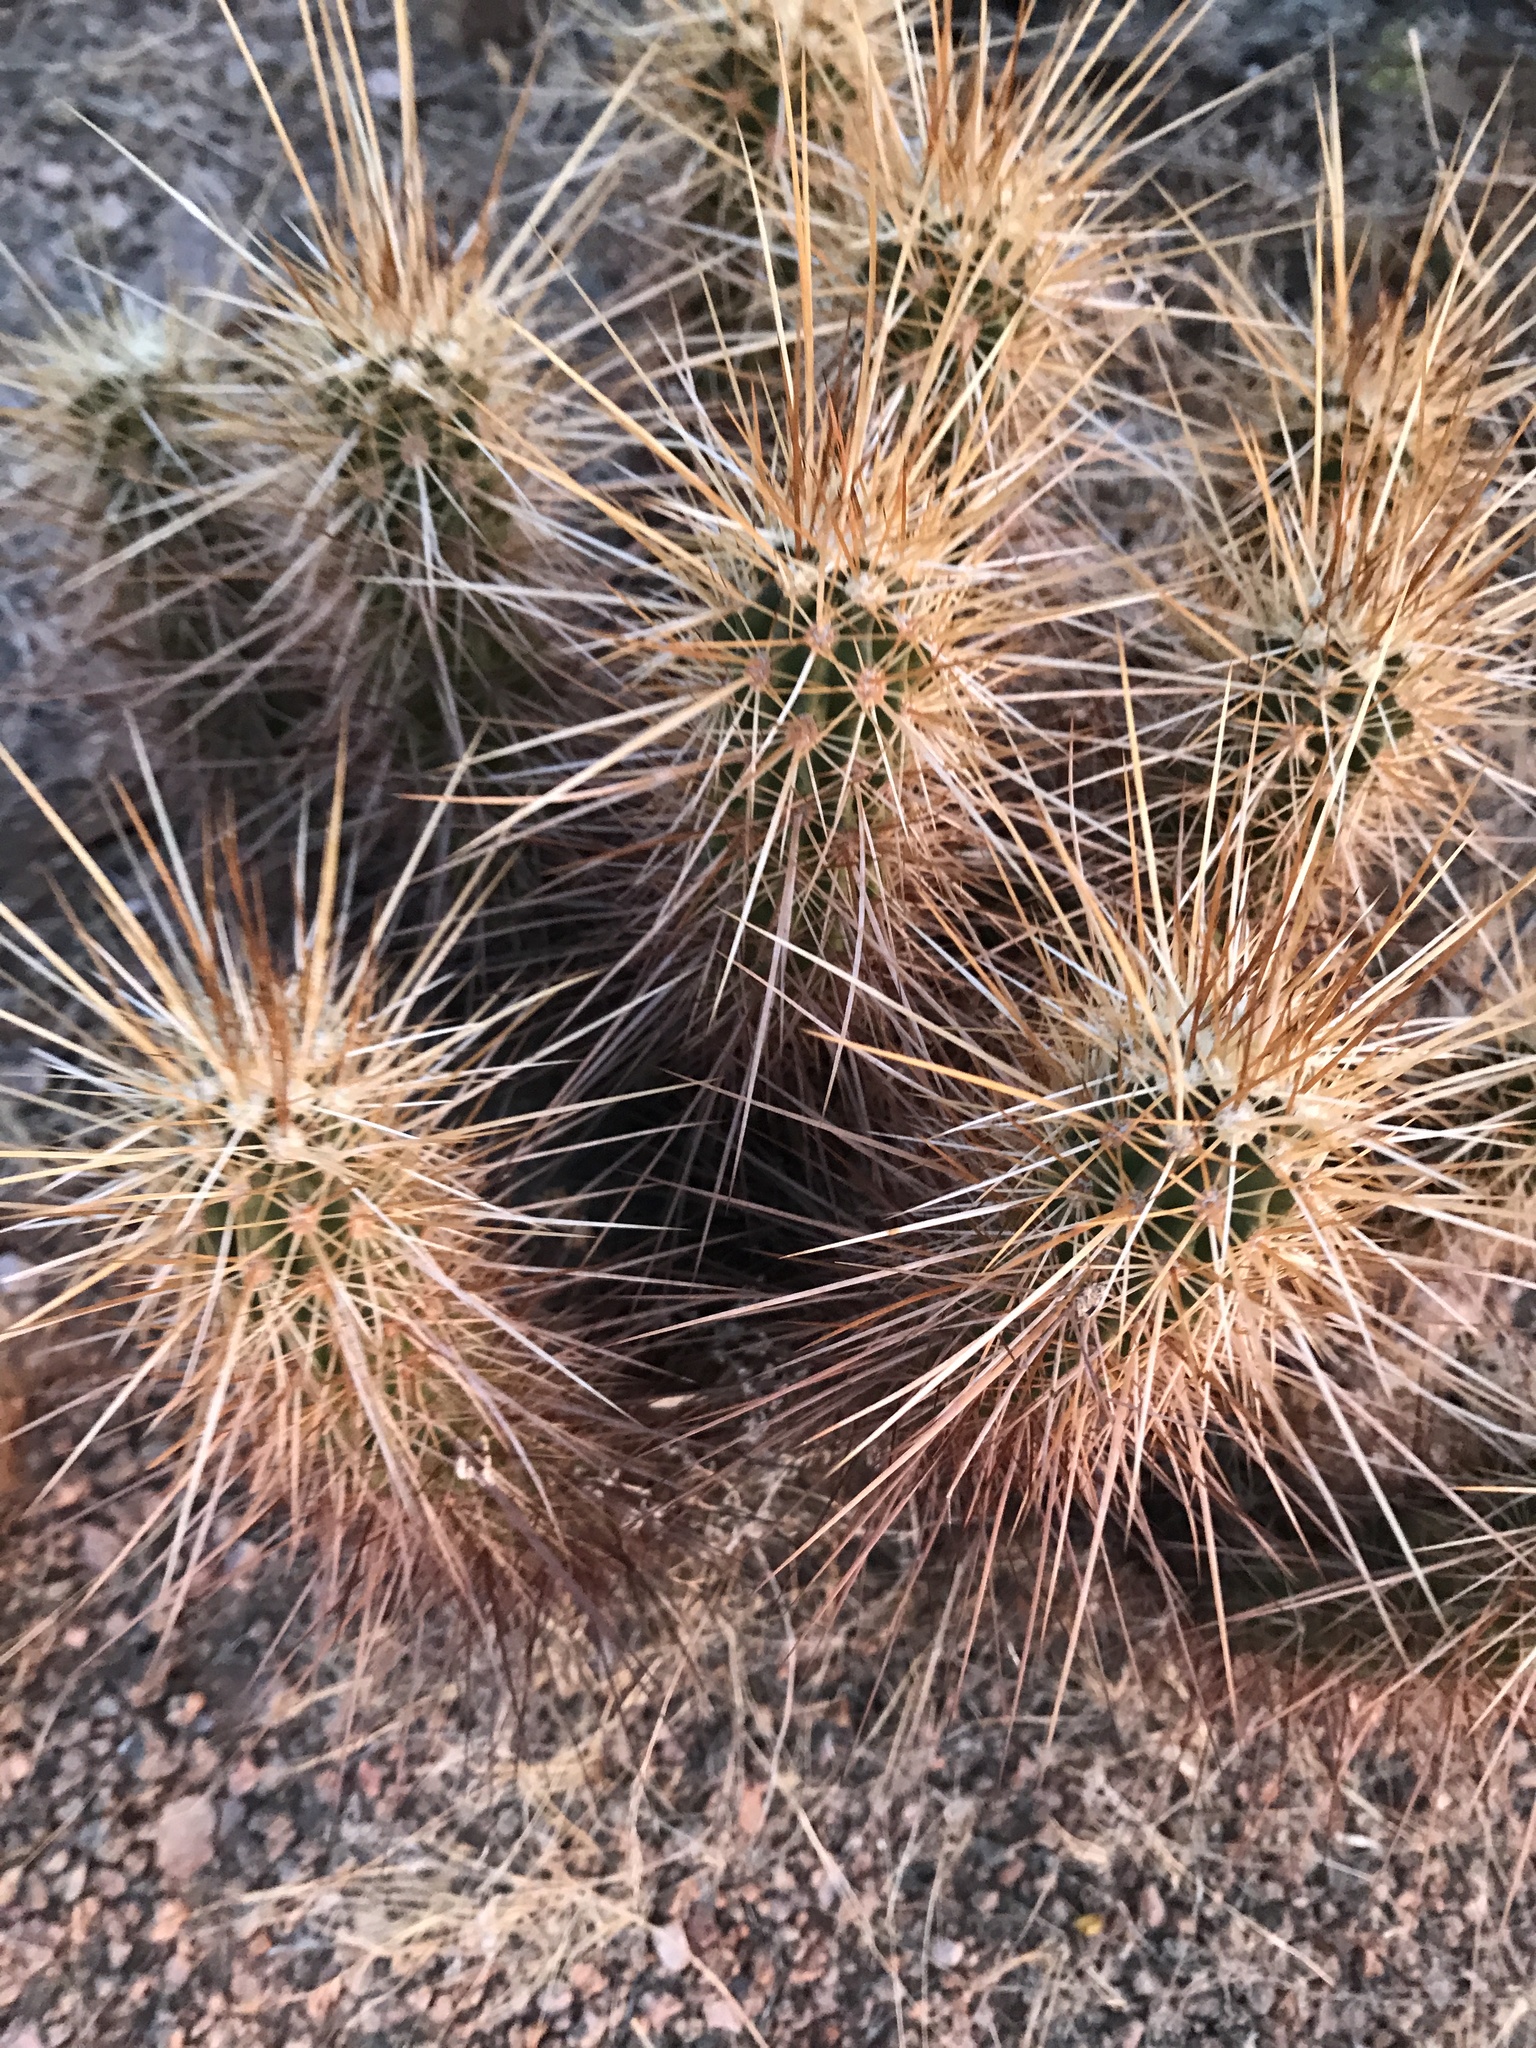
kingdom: Plantae
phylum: Tracheophyta
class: Magnoliopsida
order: Caryophyllales
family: Cactaceae
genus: Echinocereus
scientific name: Echinocereus engelmannii
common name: Engelmann's hedgehog cactus
